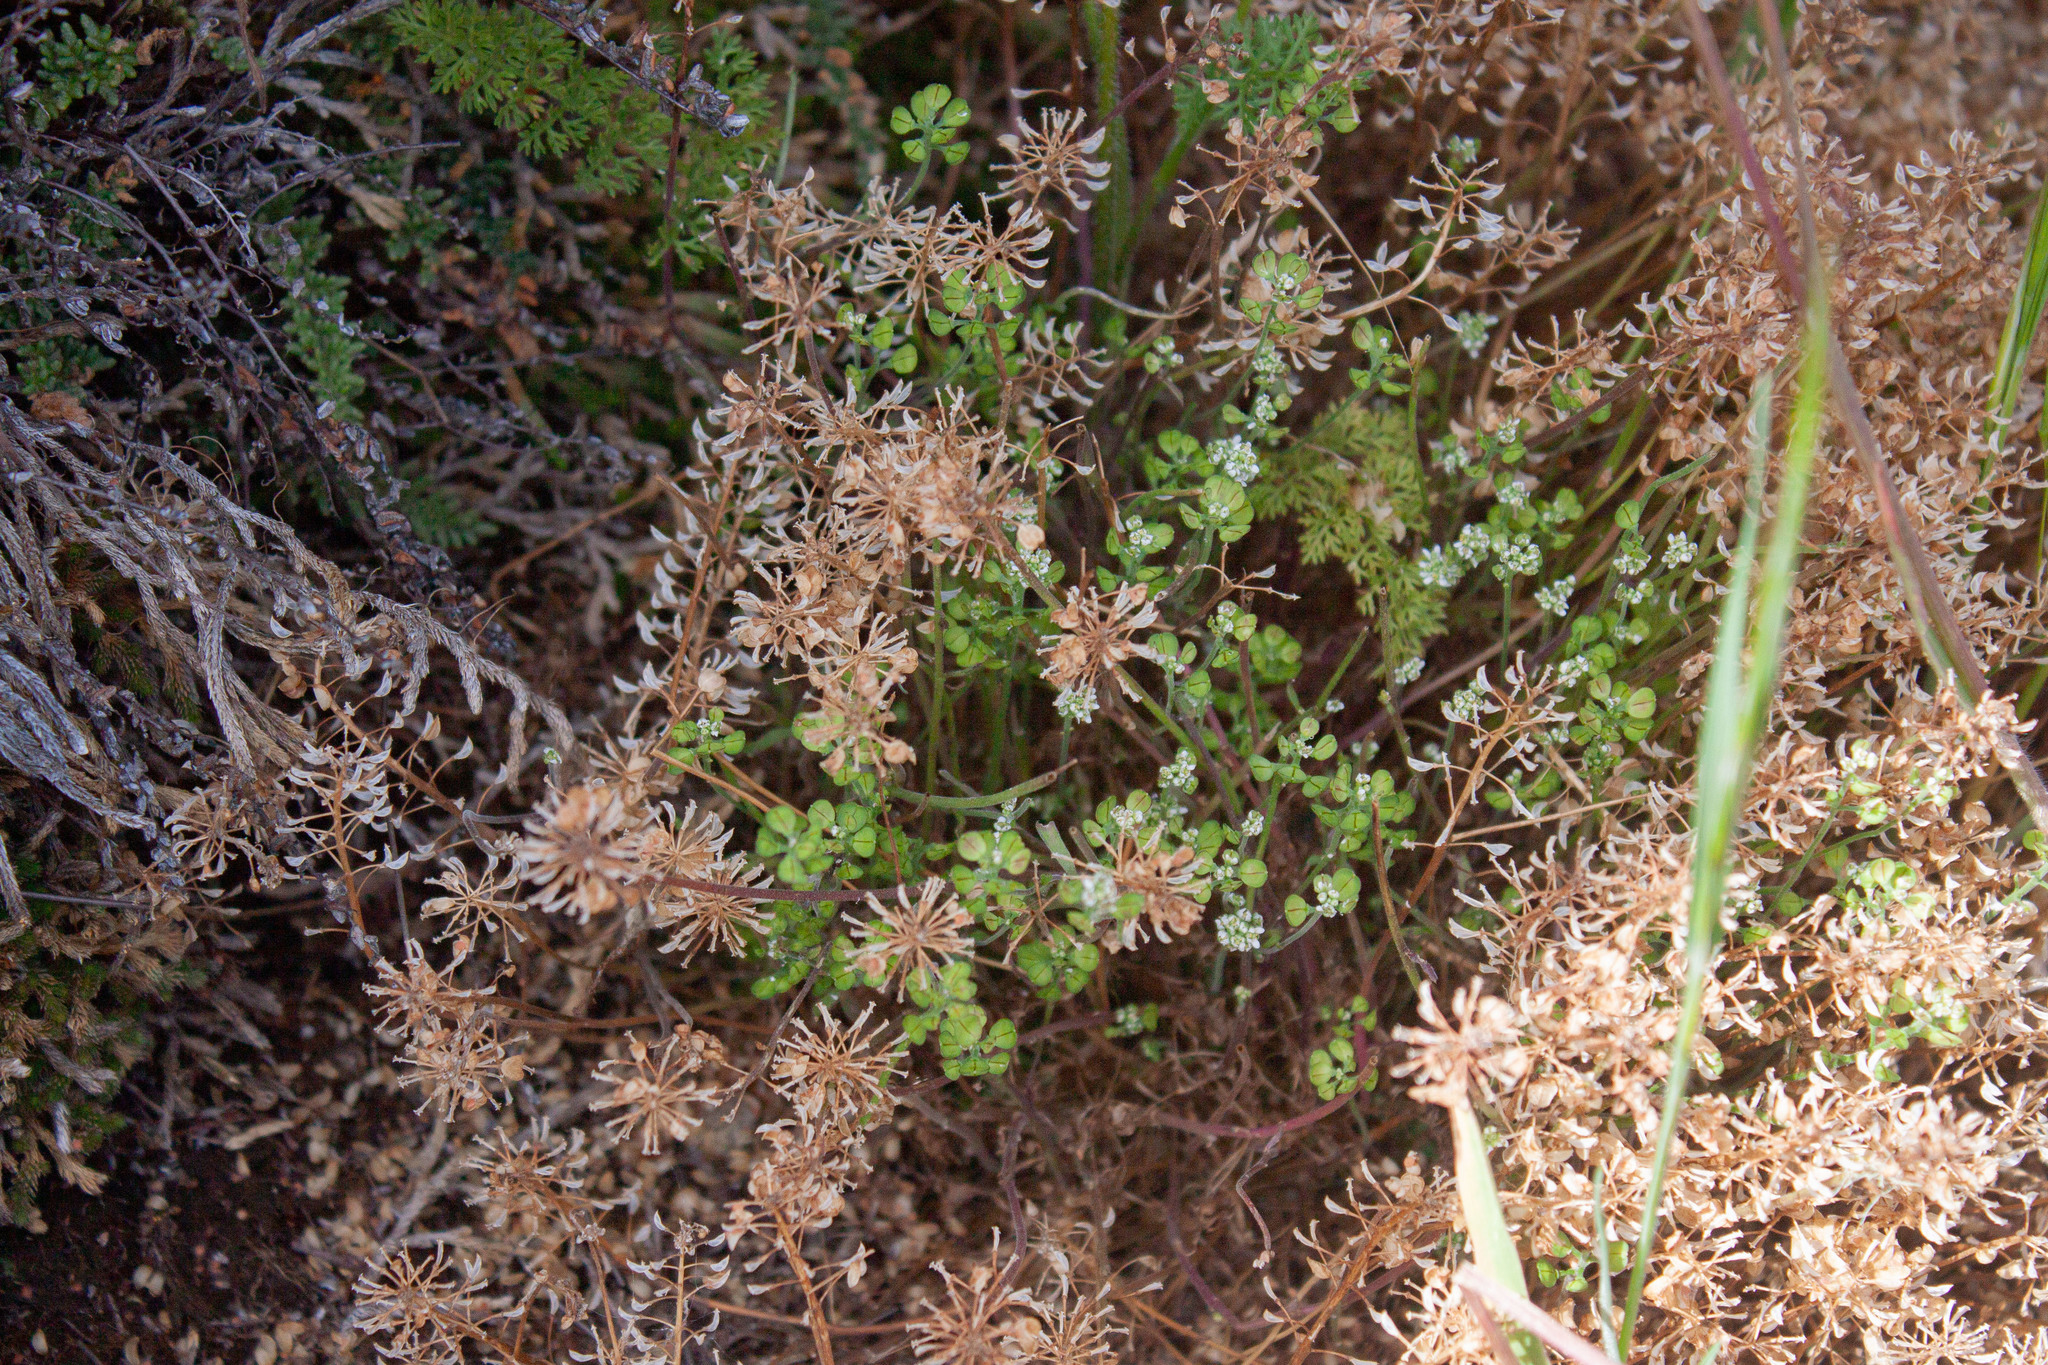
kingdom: Plantae
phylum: Tracheophyta
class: Magnoliopsida
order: Brassicales
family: Brassicaceae
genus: Teesdalia
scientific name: Teesdalia nudicaulis
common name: Shepherd's cress
